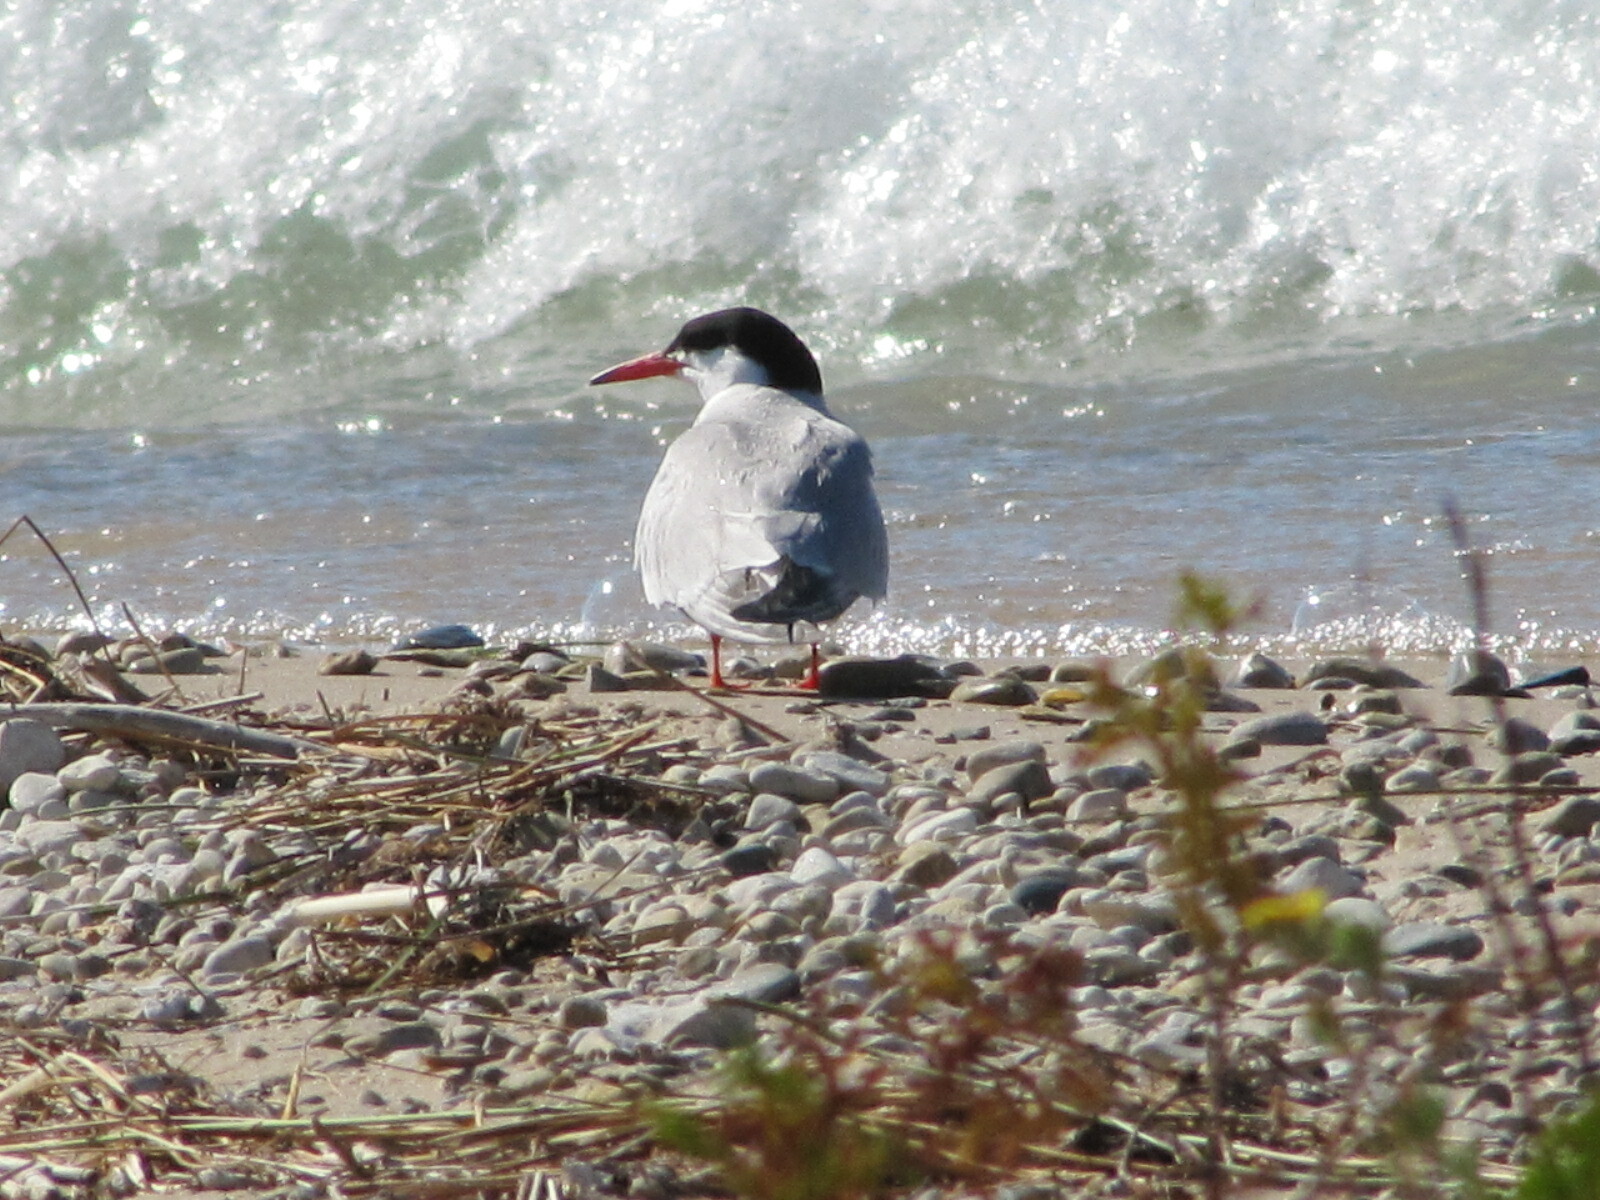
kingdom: Animalia
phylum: Chordata
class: Aves
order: Charadriiformes
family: Laridae
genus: Sterna
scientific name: Sterna hirundo
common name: Common tern
